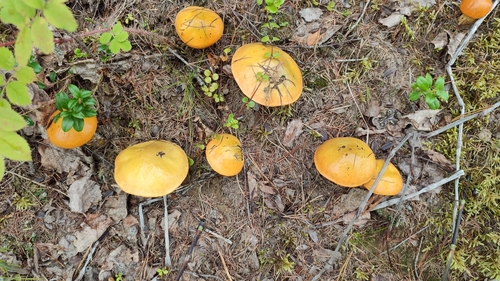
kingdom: Fungi
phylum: Basidiomycota
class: Agaricomycetes
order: Boletales
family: Suillaceae
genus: Suillus
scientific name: Suillus grevillei
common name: Larch bolete
